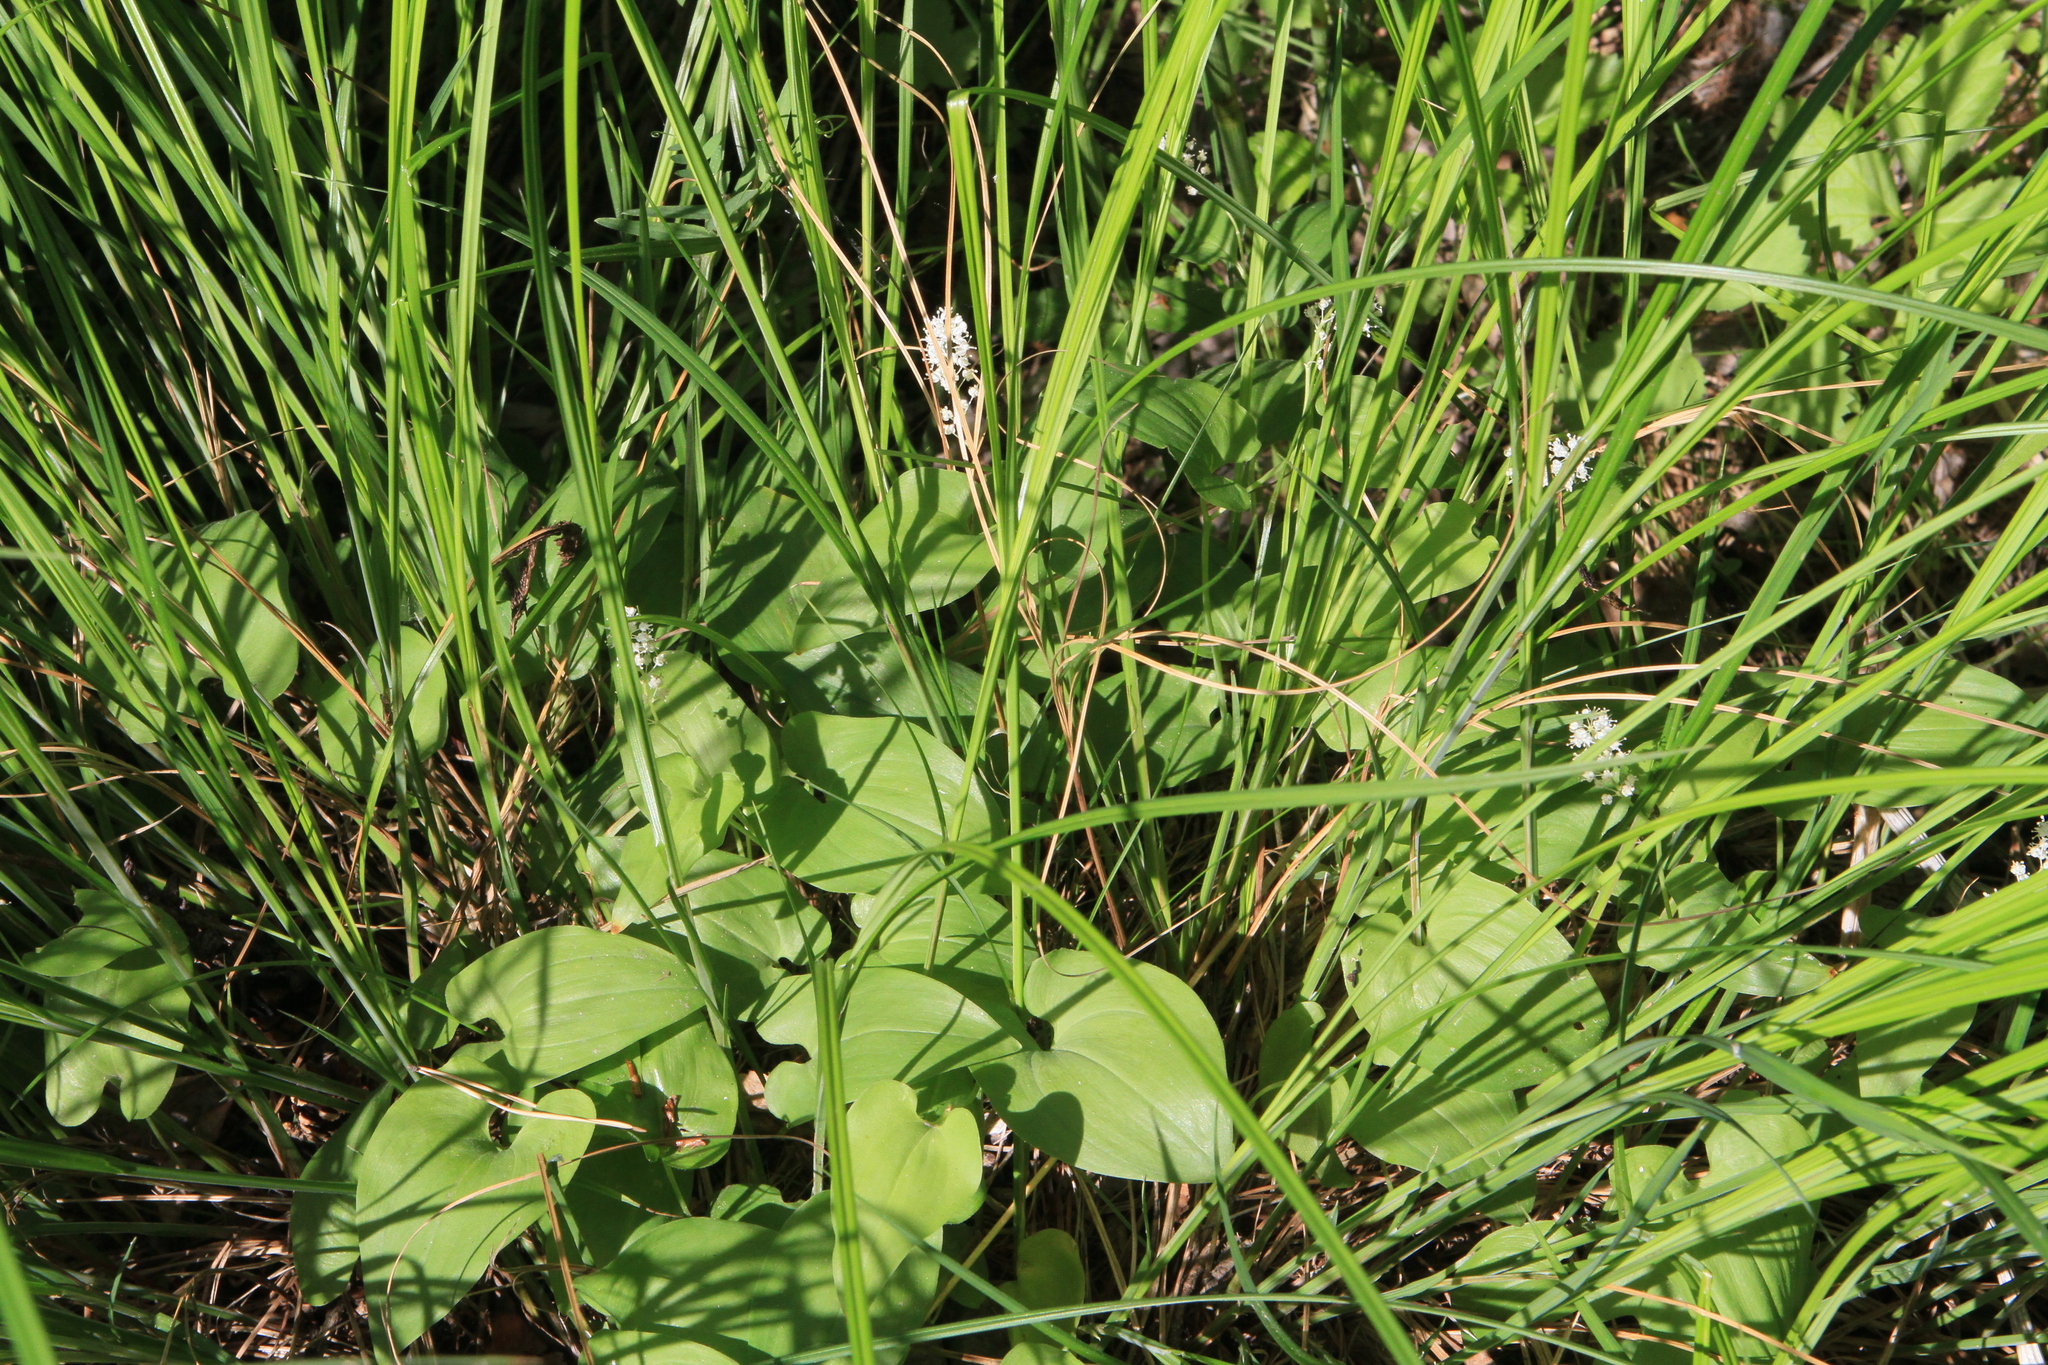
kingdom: Plantae
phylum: Tracheophyta
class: Liliopsida
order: Asparagales
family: Asparagaceae
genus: Maianthemum
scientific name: Maianthemum bifolium
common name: May lily
